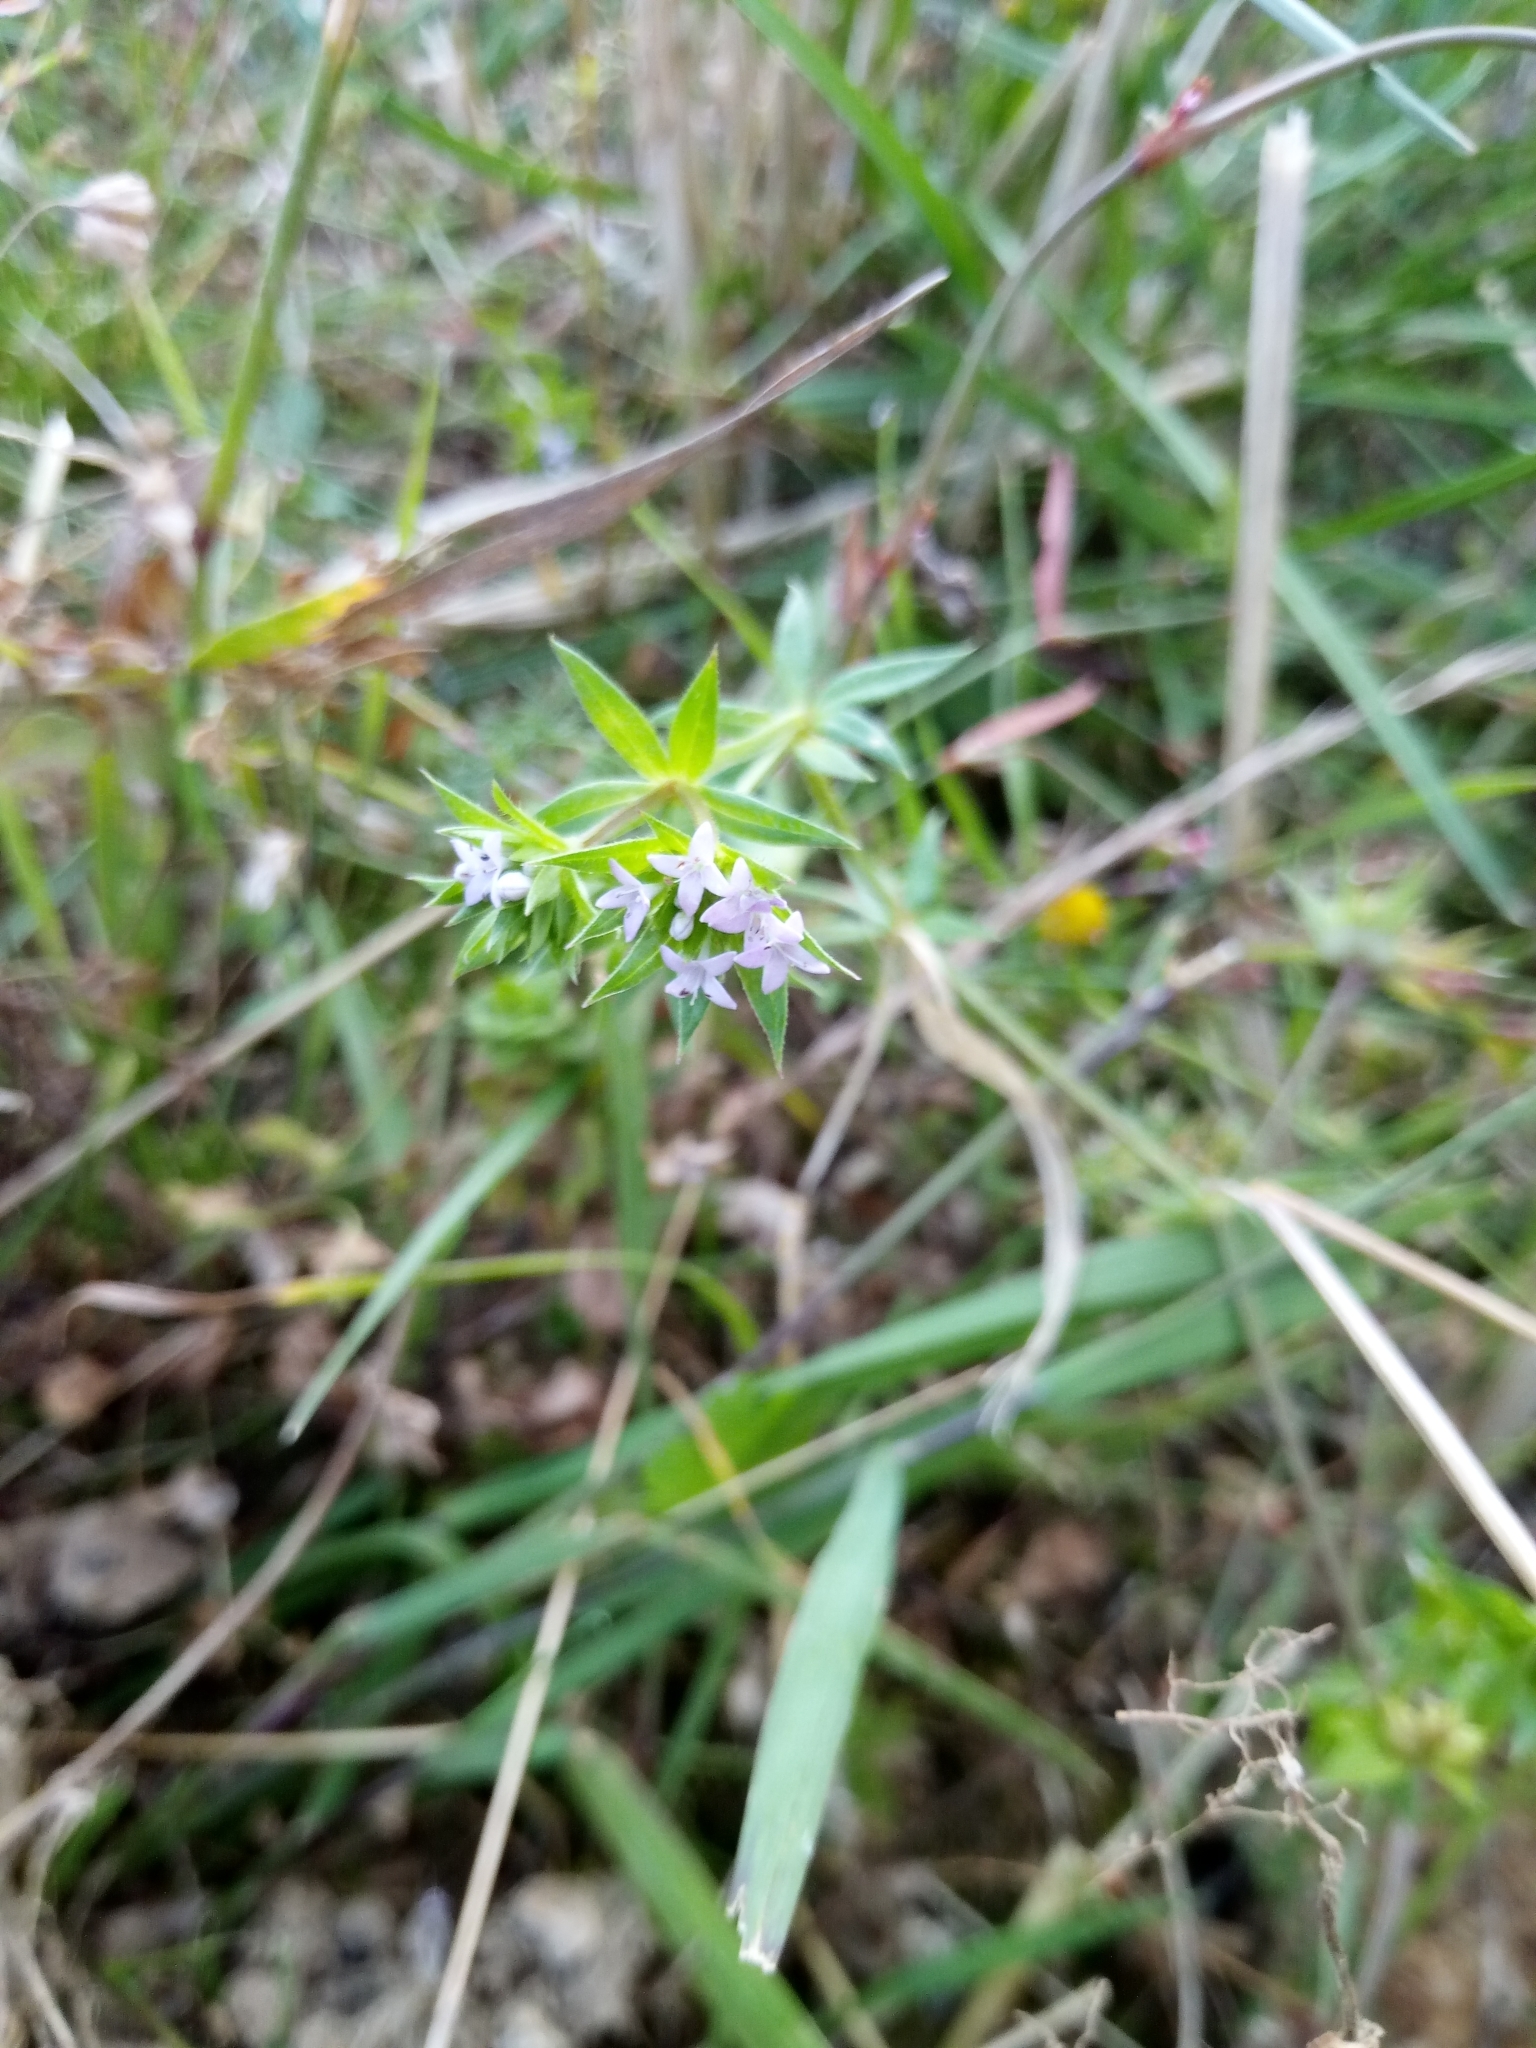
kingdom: Plantae
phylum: Tracheophyta
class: Magnoliopsida
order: Gentianales
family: Rubiaceae
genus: Sherardia
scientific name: Sherardia arvensis
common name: Field madder
